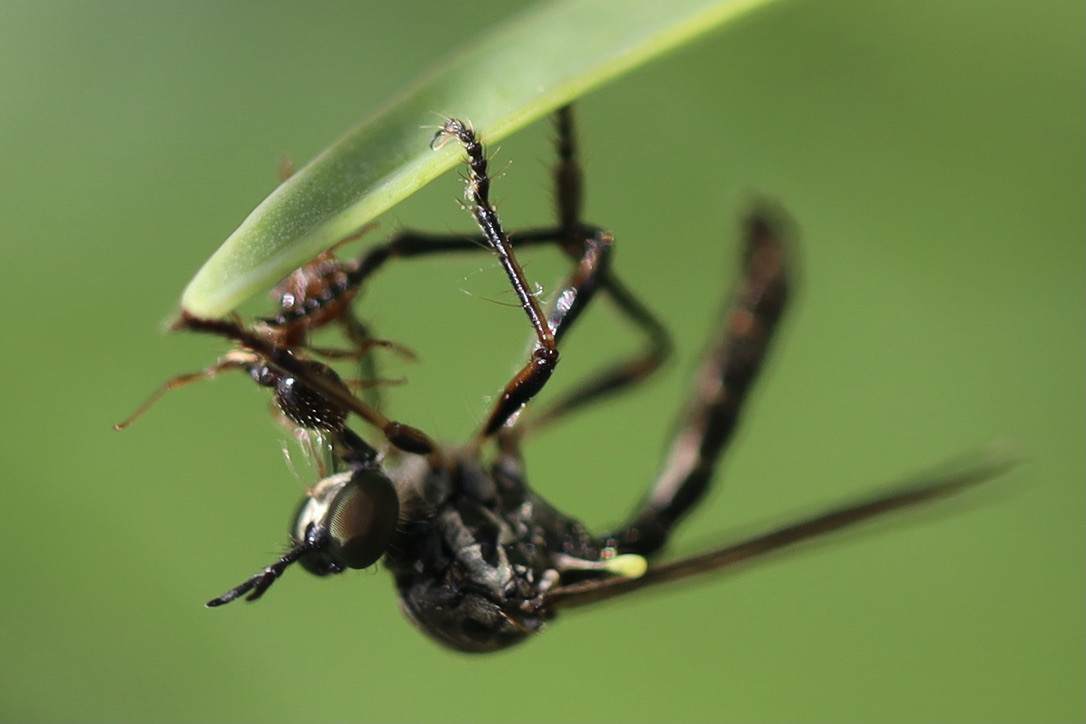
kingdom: Animalia
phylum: Arthropoda
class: Insecta
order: Hymenoptera
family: Formicidae
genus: Tetramorium
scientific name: Tetramorium immigrans
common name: Pavement ant
